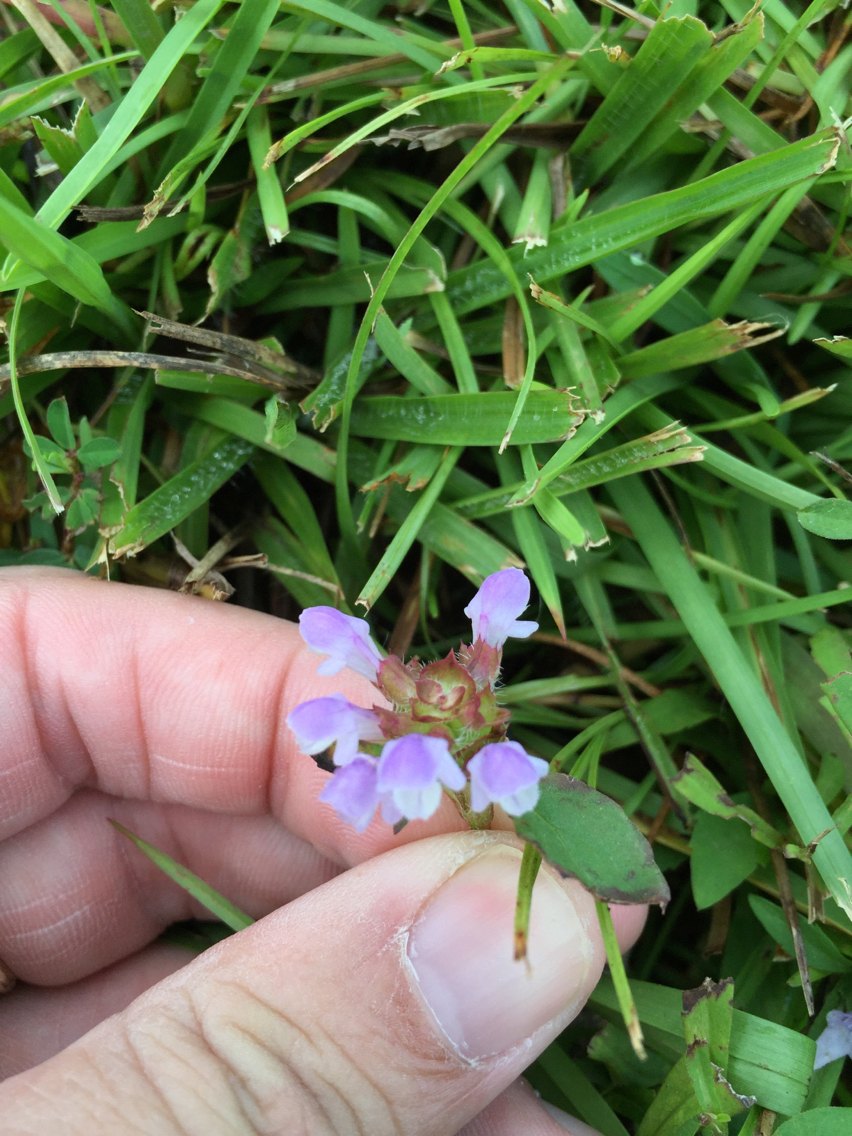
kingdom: Plantae
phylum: Tracheophyta
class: Magnoliopsida
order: Lamiales
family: Lamiaceae
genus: Prunella
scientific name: Prunella vulgaris
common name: Heal-all
